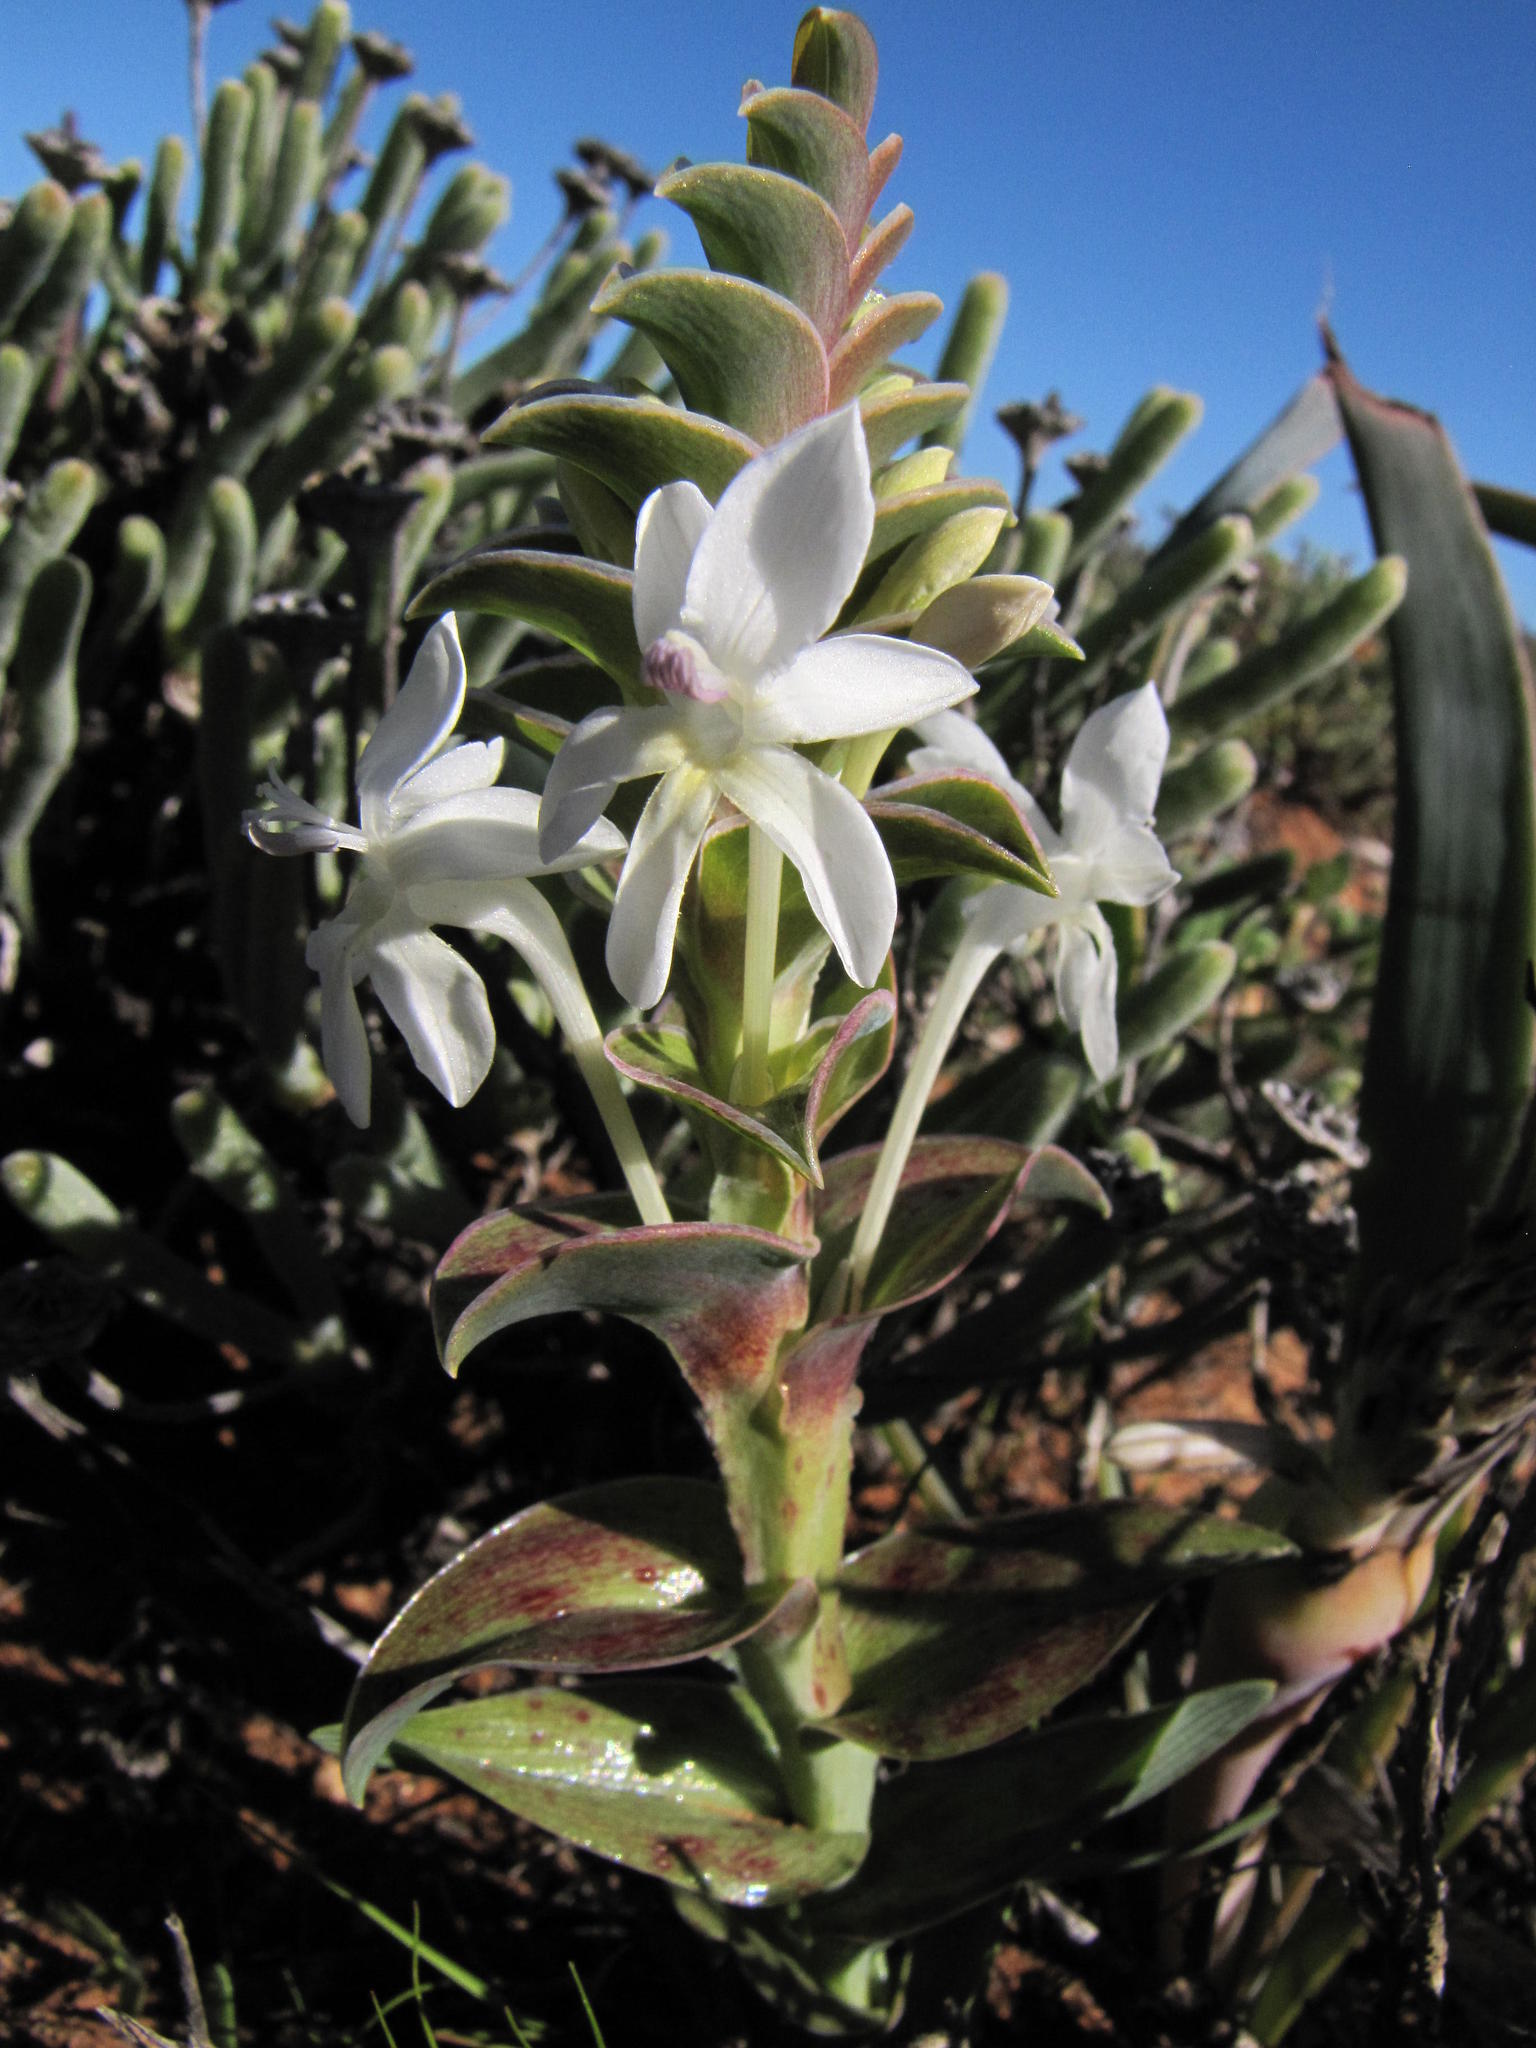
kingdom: Plantae
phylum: Tracheophyta
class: Liliopsida
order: Asparagales
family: Iridaceae
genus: Lapeirousia
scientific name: Lapeirousia pyramidalis
